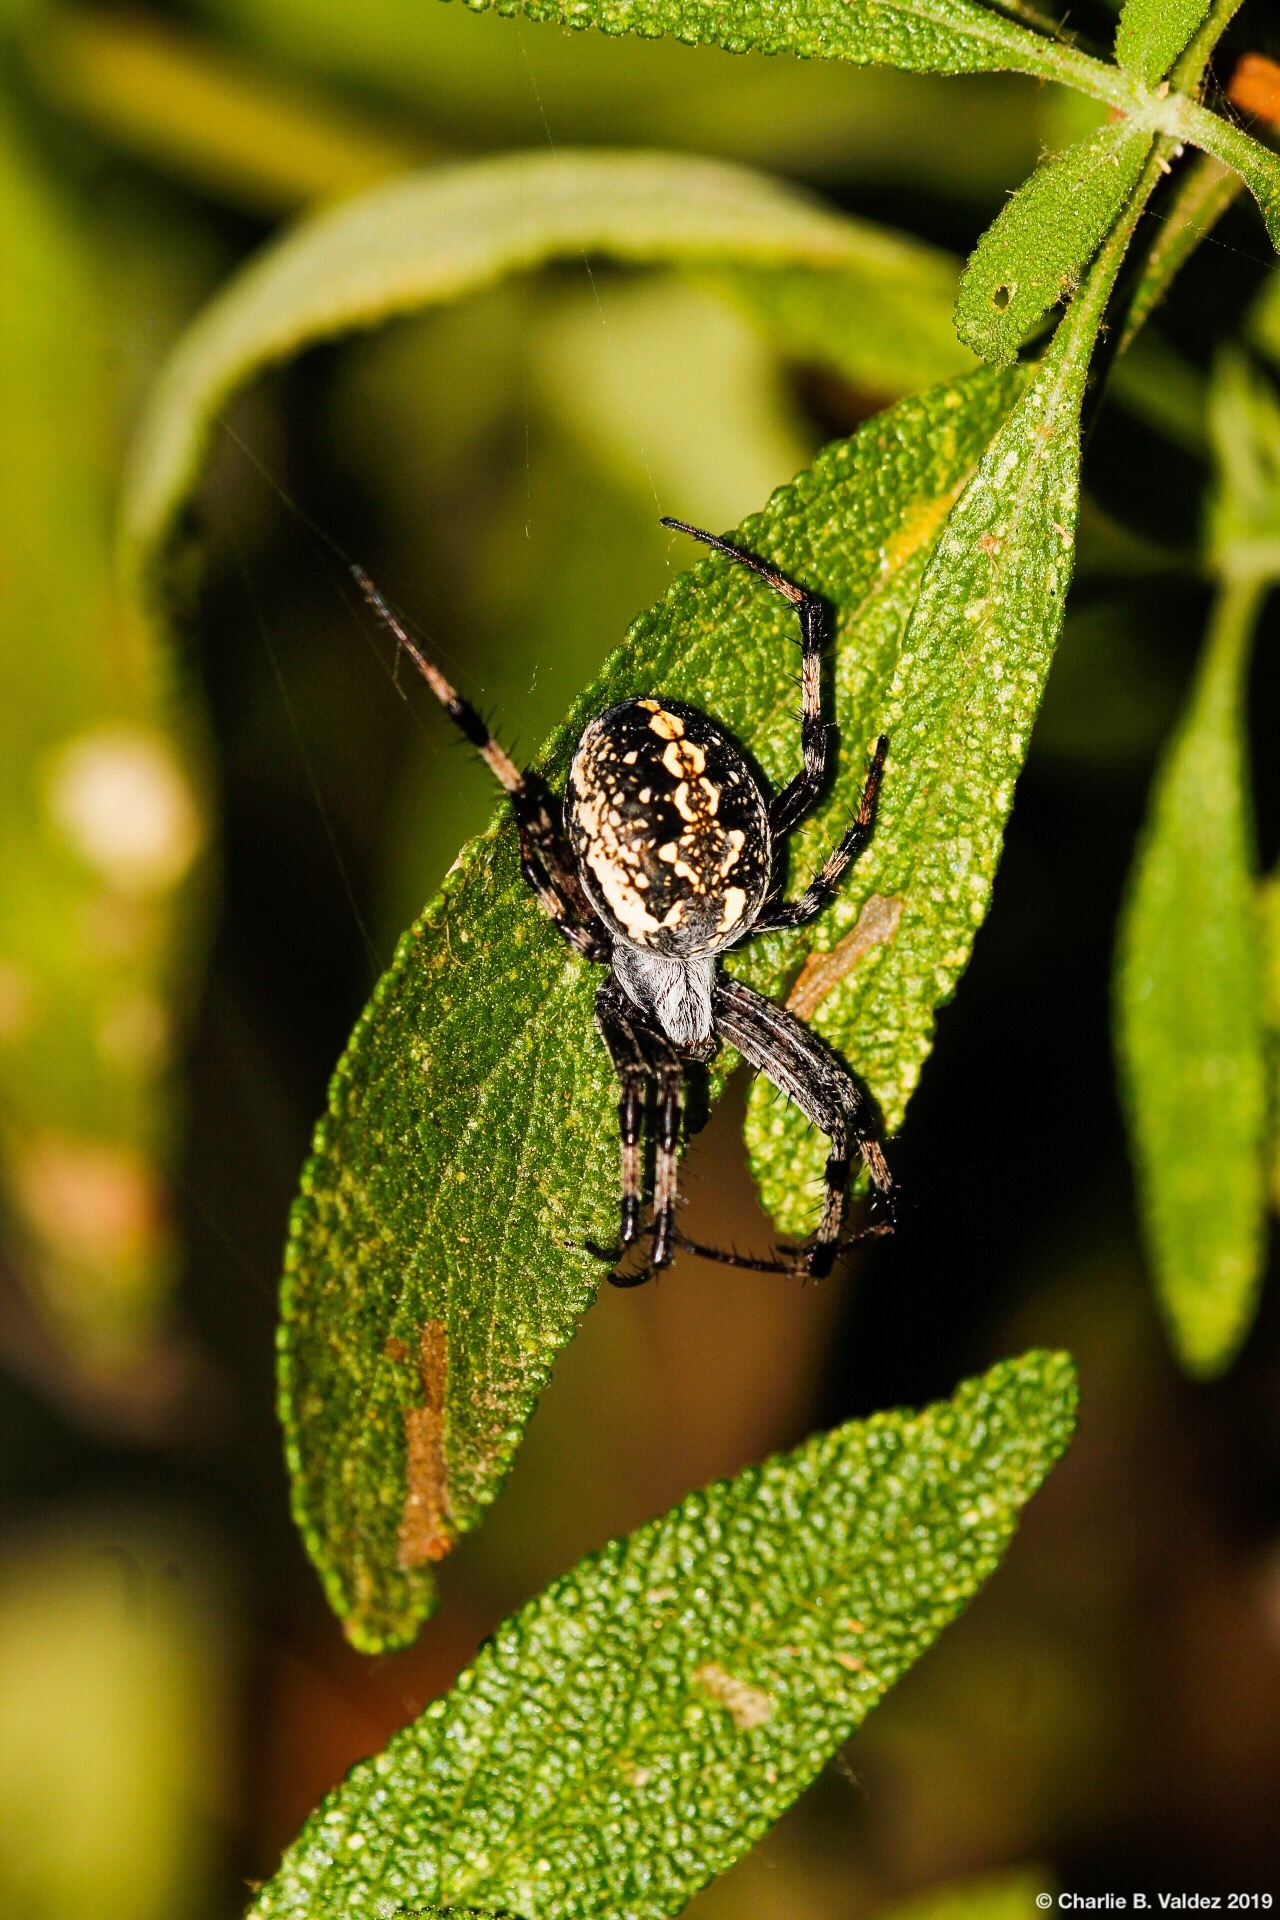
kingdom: Animalia
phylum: Arthropoda
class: Arachnida
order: Araneae
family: Araneidae
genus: Neoscona
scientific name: Neoscona oaxacensis
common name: Orb weavers
